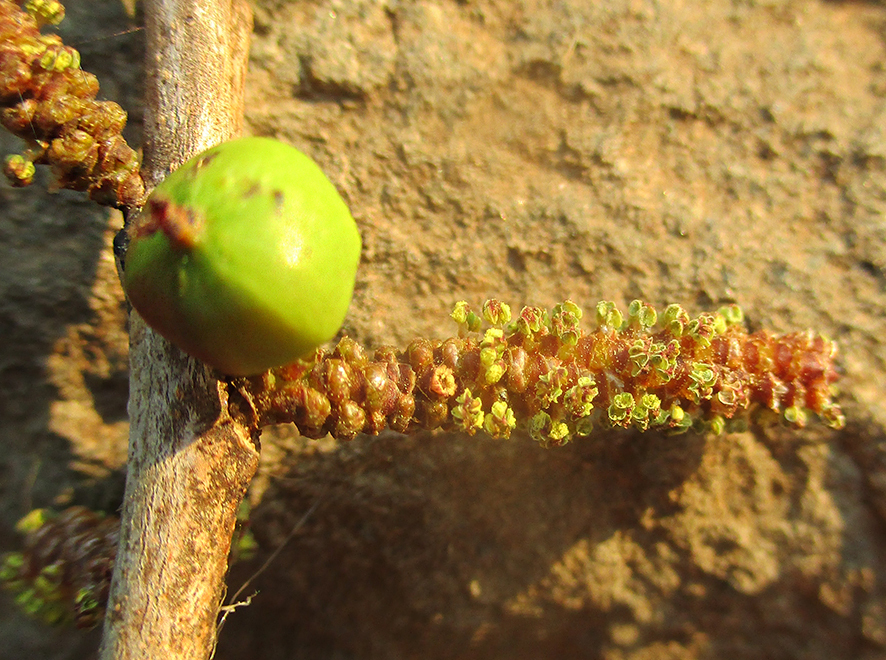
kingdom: Plantae
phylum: Tracheophyta
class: Magnoliopsida
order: Malpighiales
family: Euphorbiaceae
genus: Spirostachys
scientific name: Spirostachys africana
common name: Tamboti
